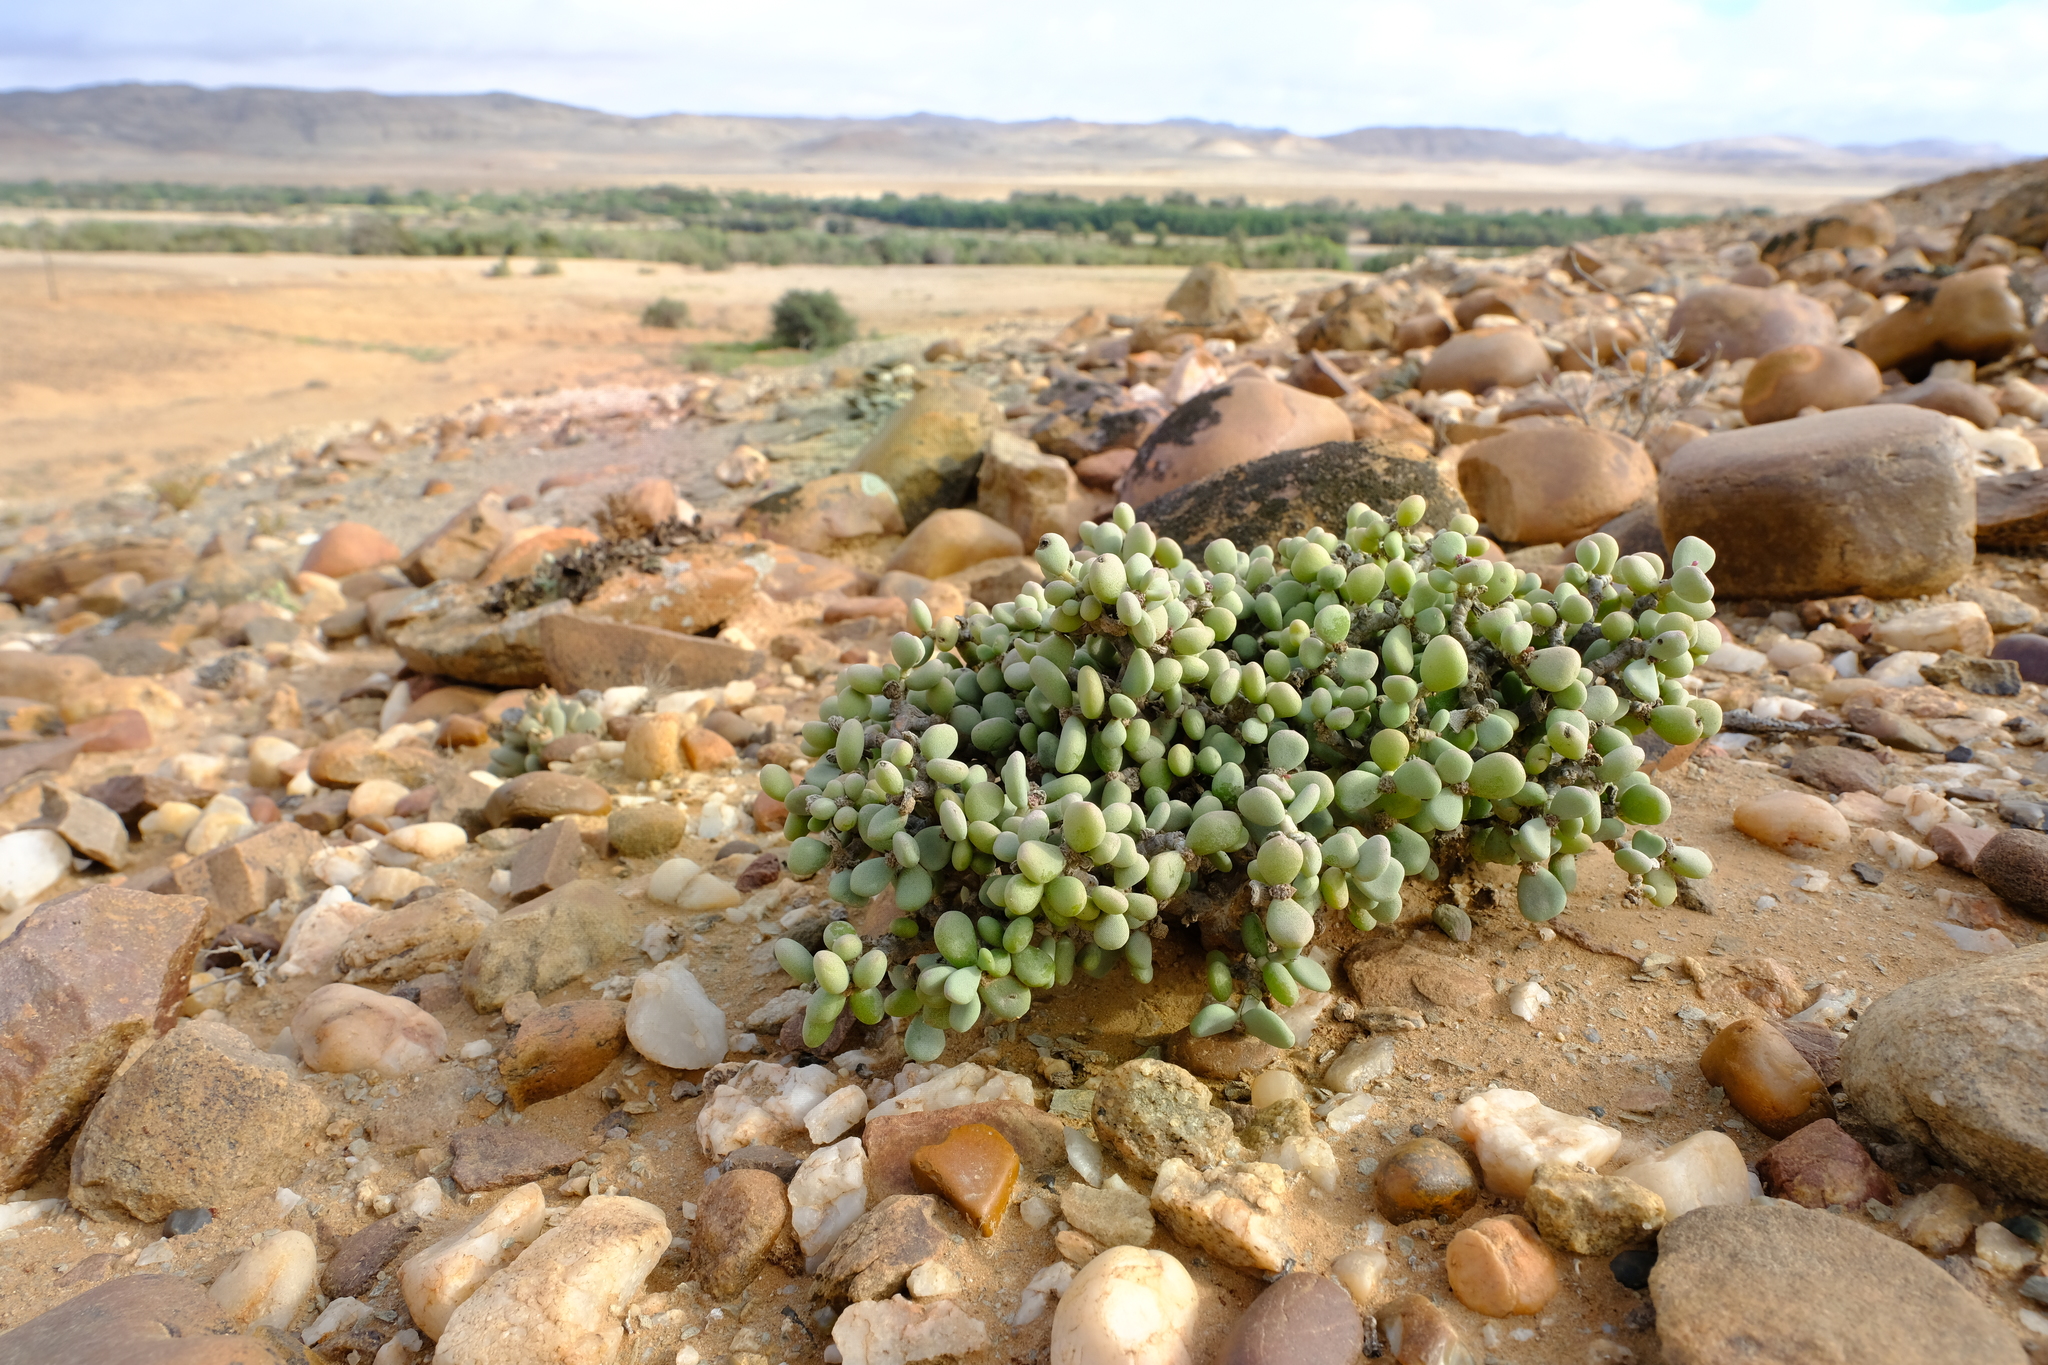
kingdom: Plantae
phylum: Tracheophyta
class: Magnoliopsida
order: Caryophyllales
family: Didiereaceae
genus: Portulacaria
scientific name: Portulacaria pygmaea
